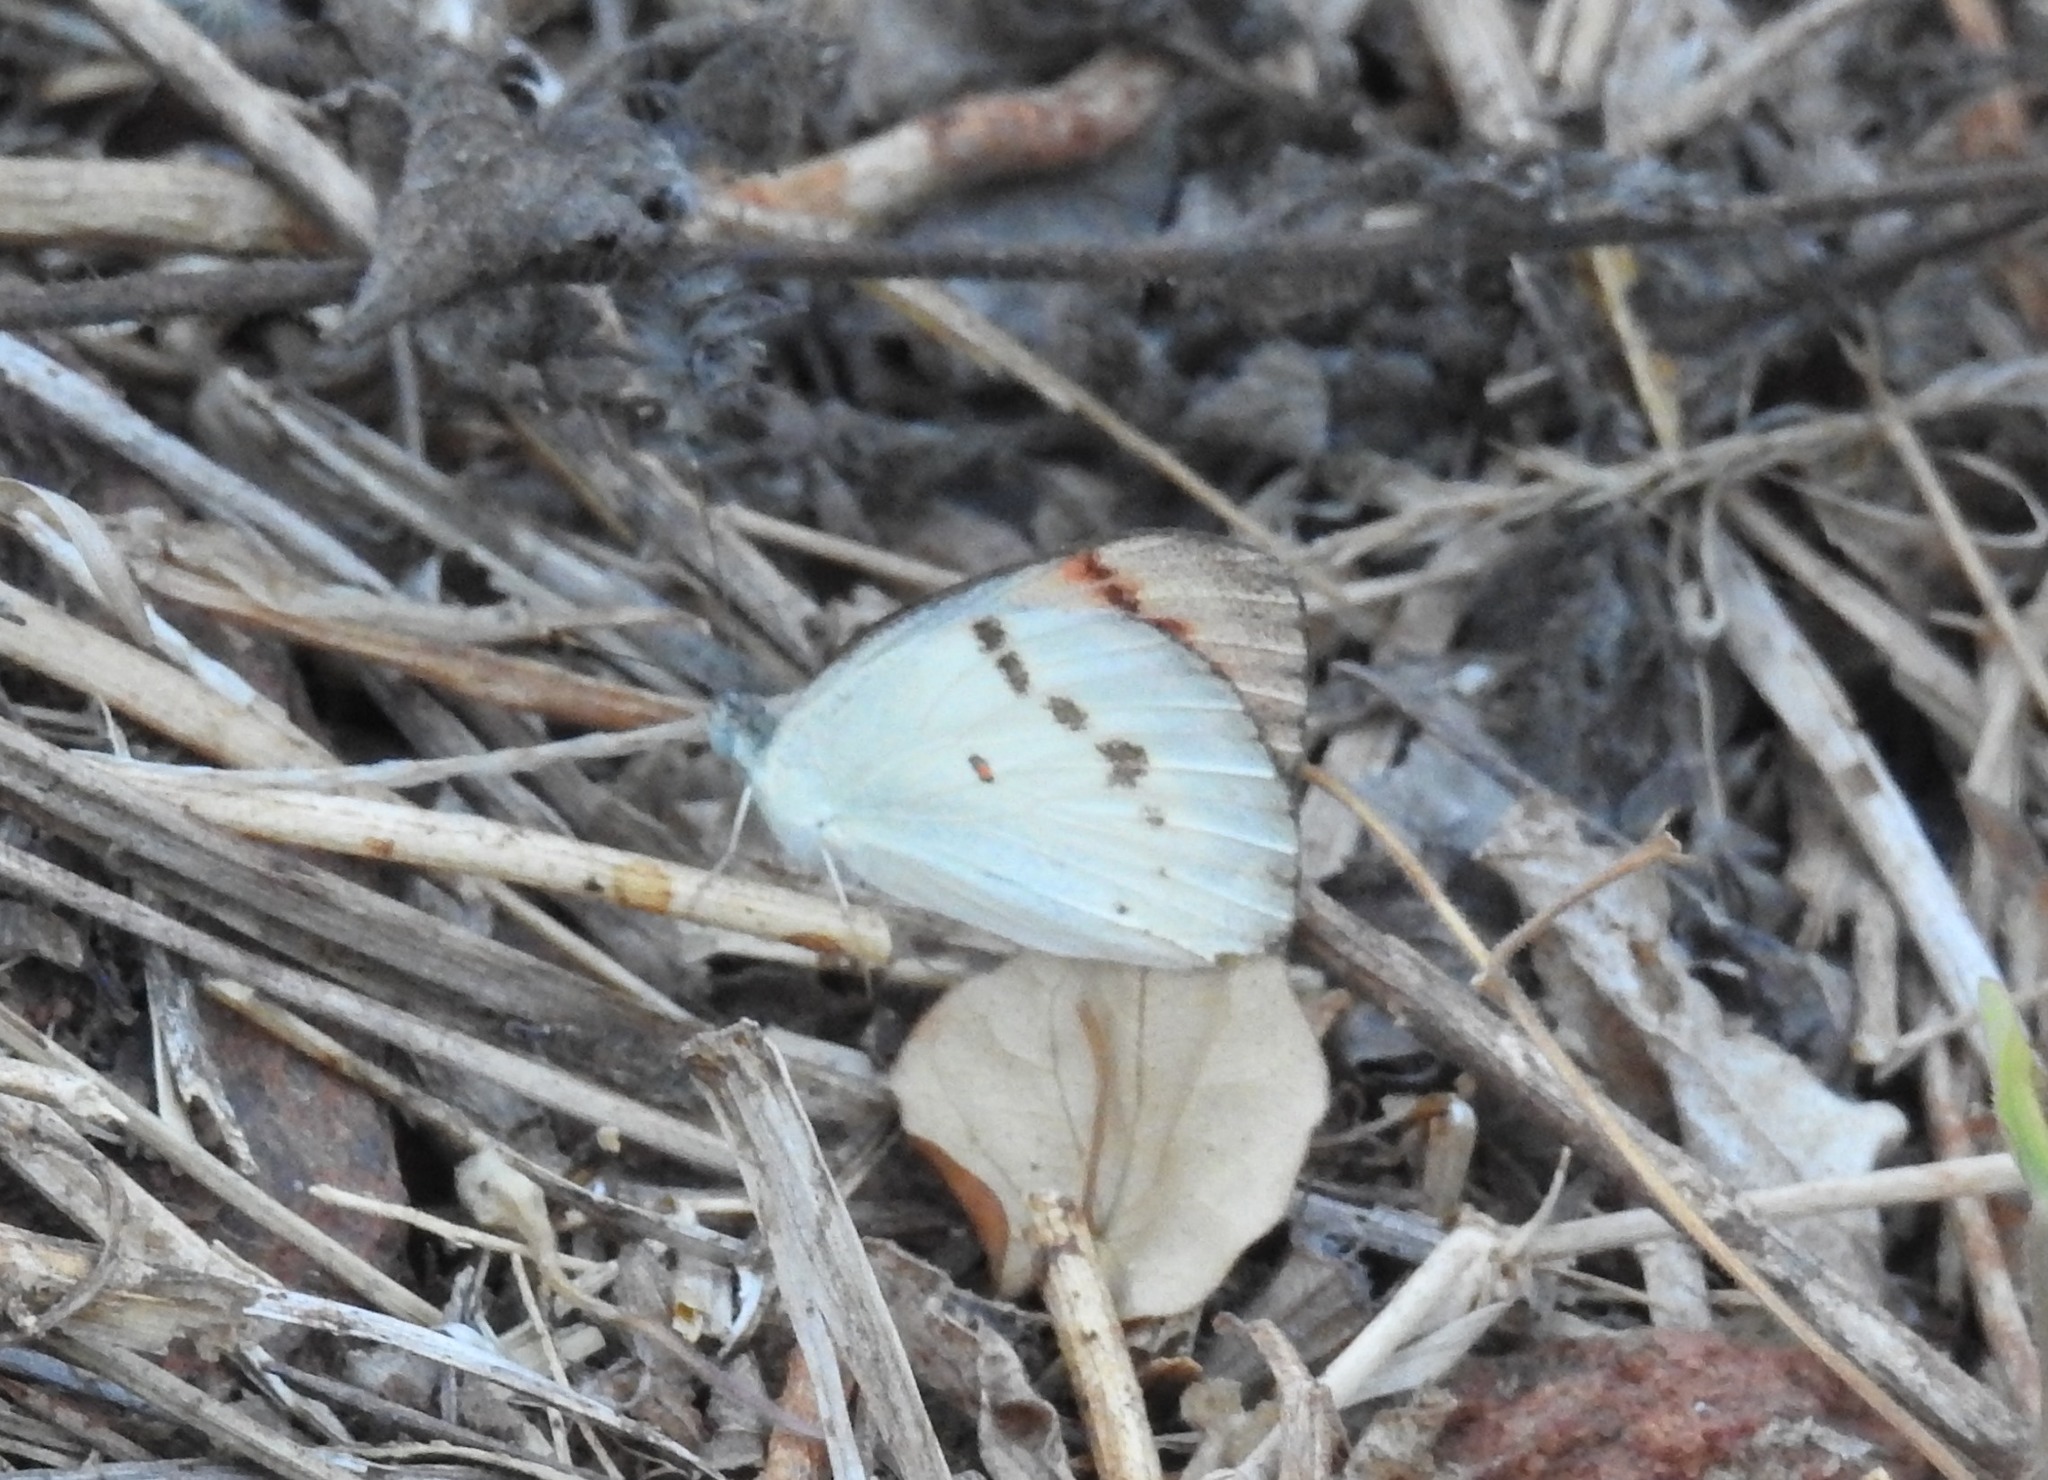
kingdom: Animalia
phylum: Arthropoda
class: Insecta
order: Lepidoptera
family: Pieridae
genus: Colotis
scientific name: Colotis danae
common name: Crimson tip
